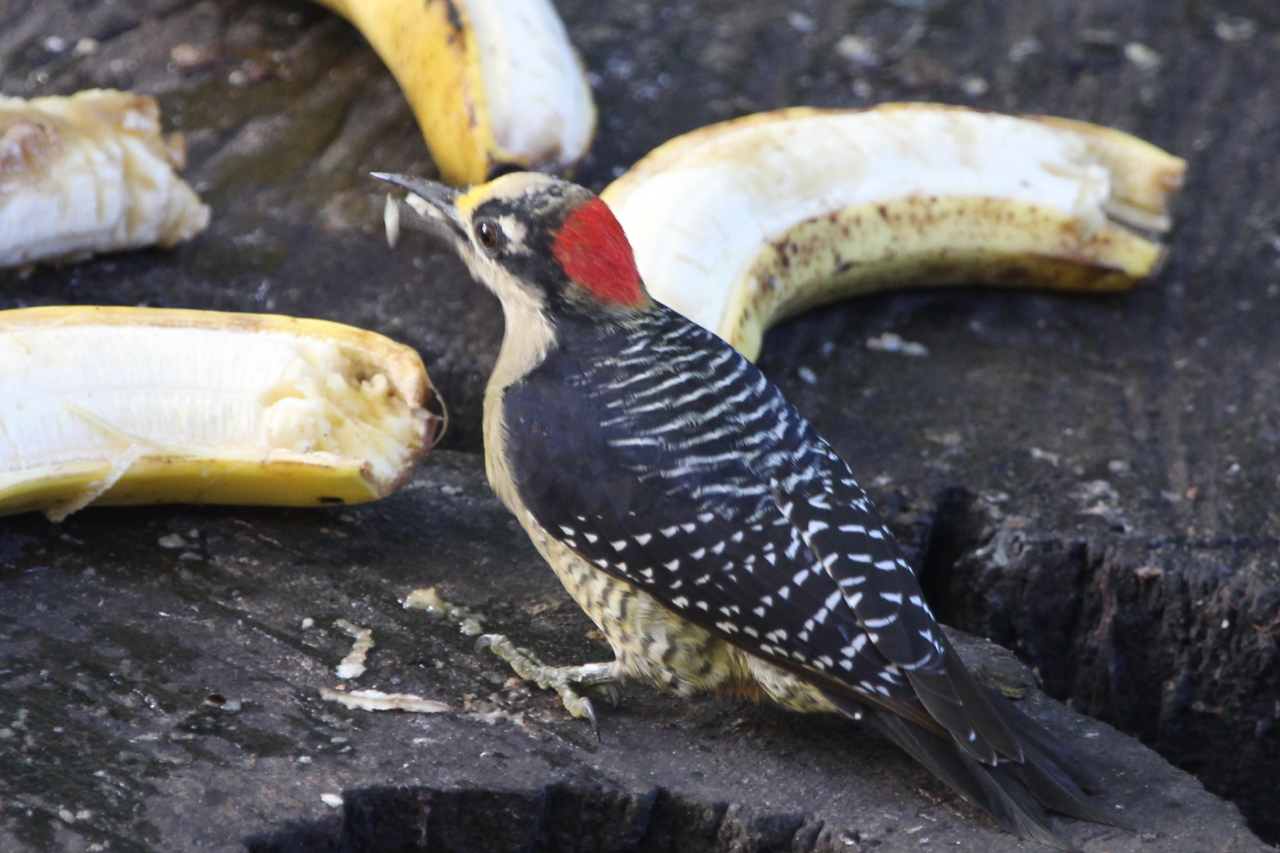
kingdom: Animalia
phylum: Chordata
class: Aves
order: Piciformes
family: Picidae
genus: Melanerpes
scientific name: Melanerpes pucherani
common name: Black-cheeked woodpecker
